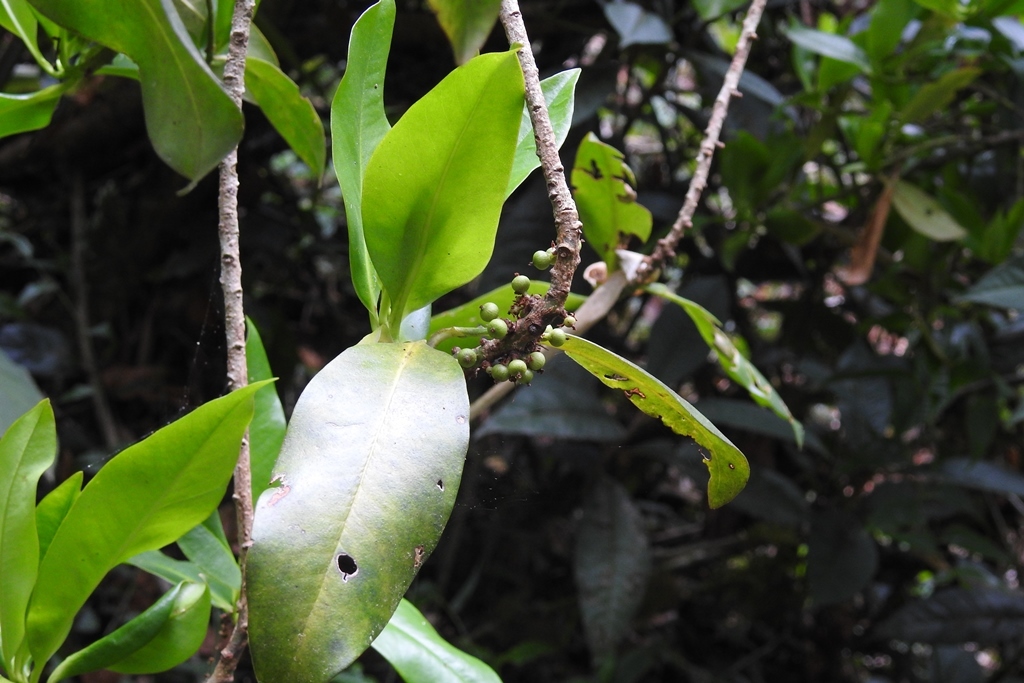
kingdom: Plantae
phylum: Tracheophyta
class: Magnoliopsida
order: Ericales
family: Primulaceae
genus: Myrsine
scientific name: Myrsine juergensenii
